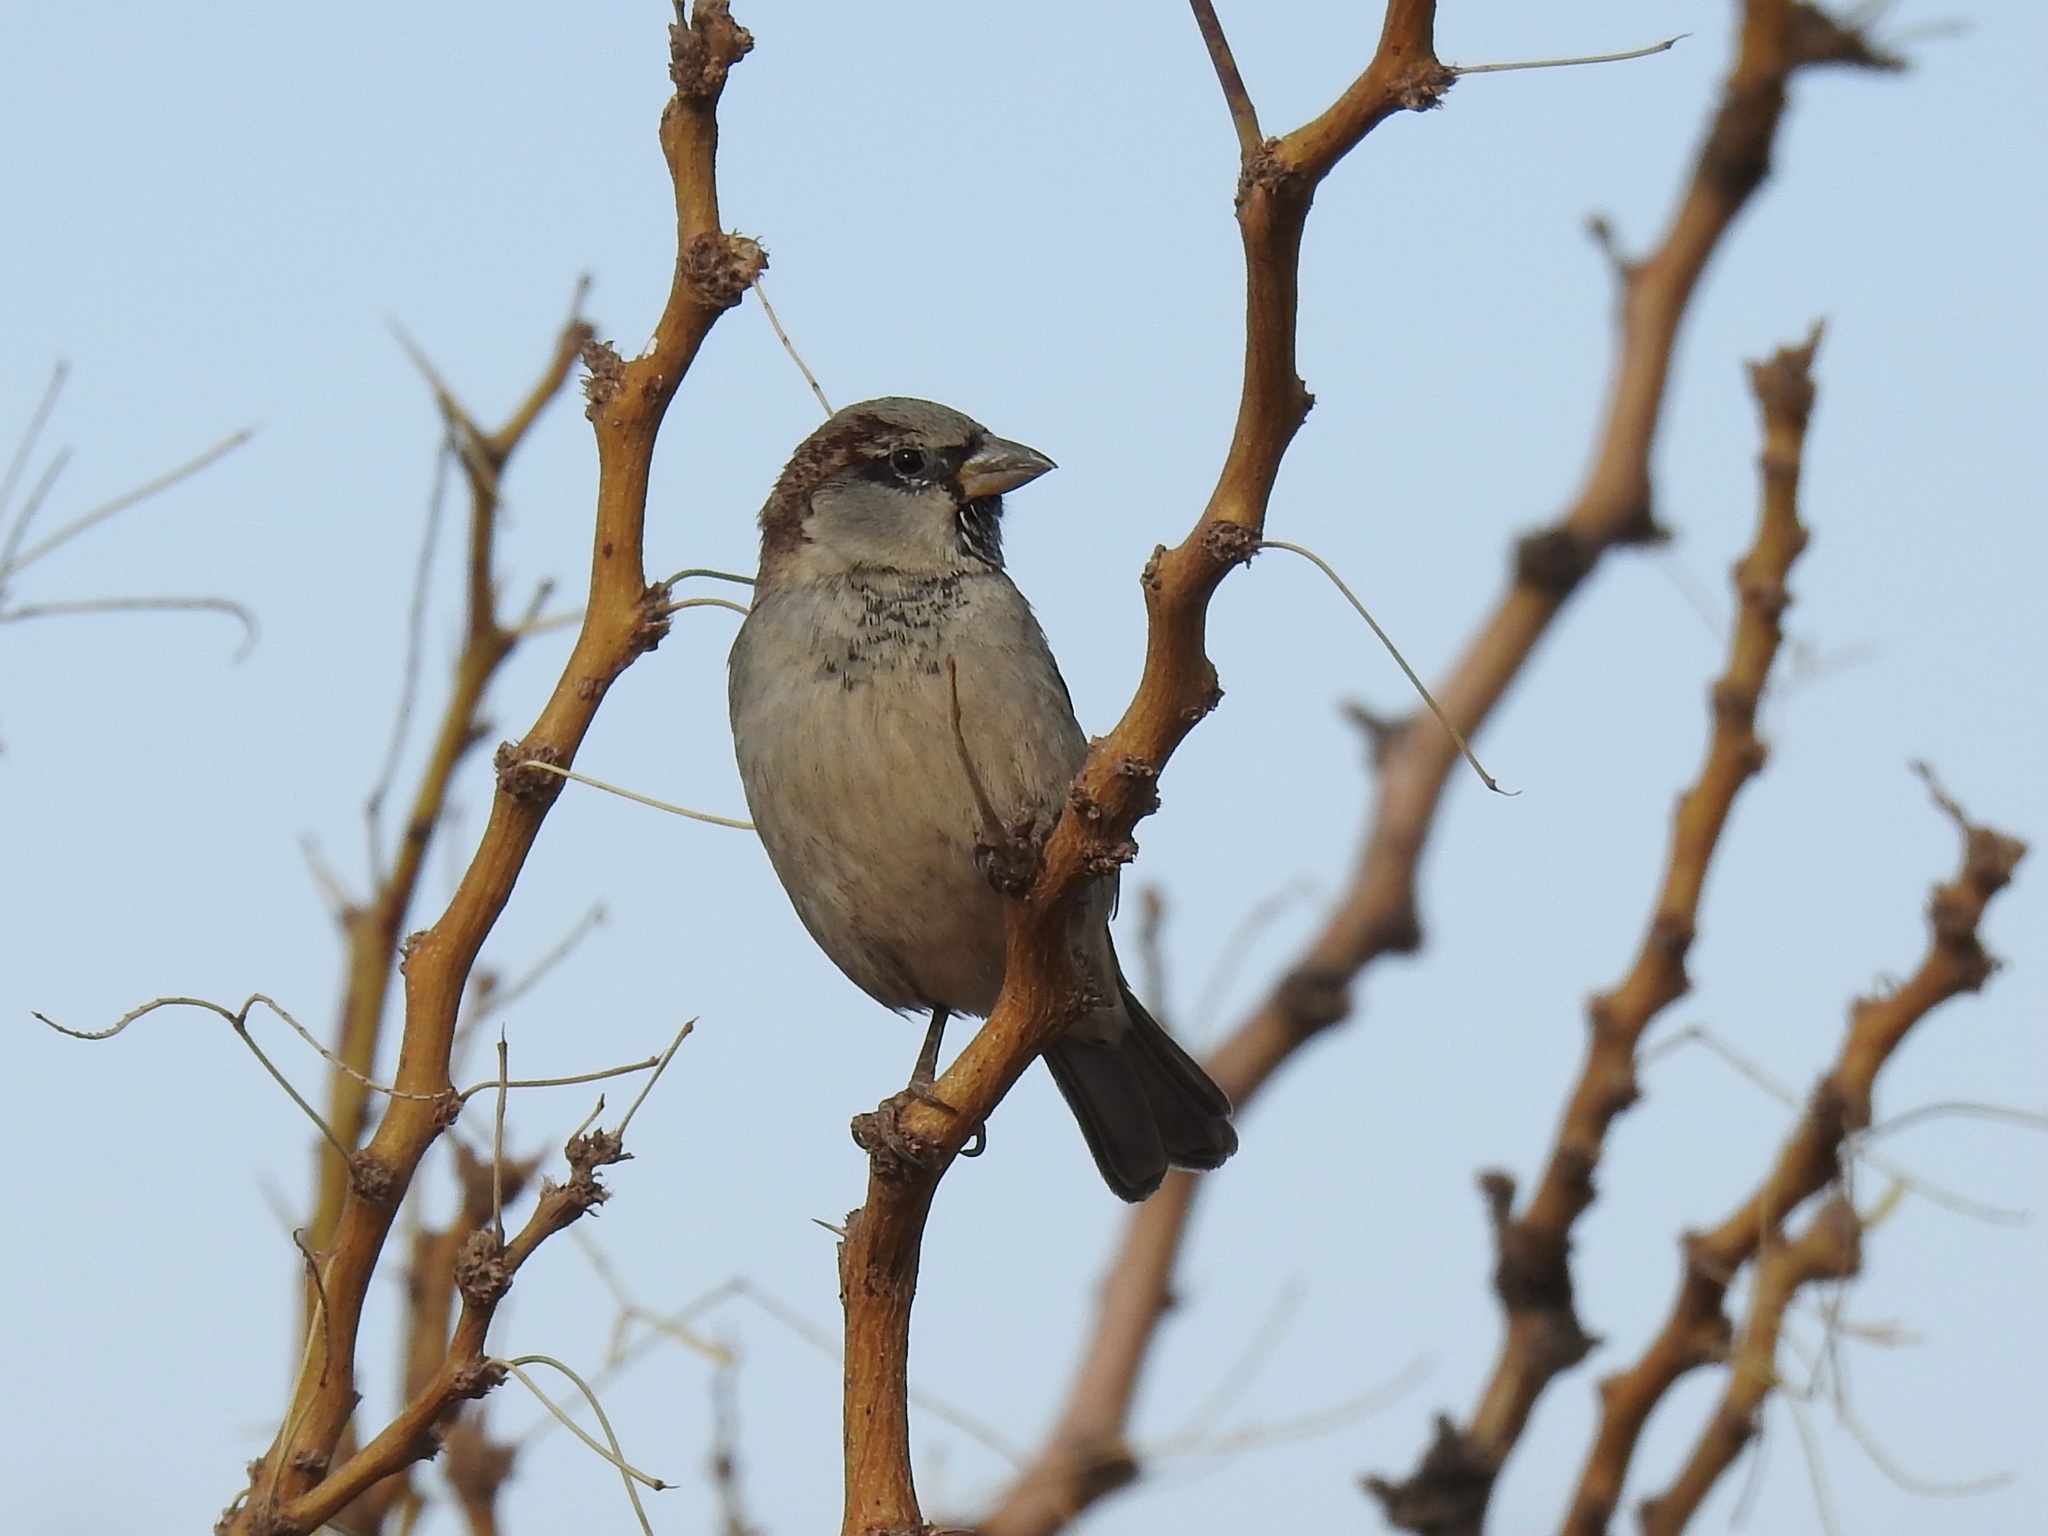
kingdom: Animalia
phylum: Chordata
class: Aves
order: Passeriformes
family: Passeridae
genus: Passer
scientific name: Passer domesticus
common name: House sparrow
